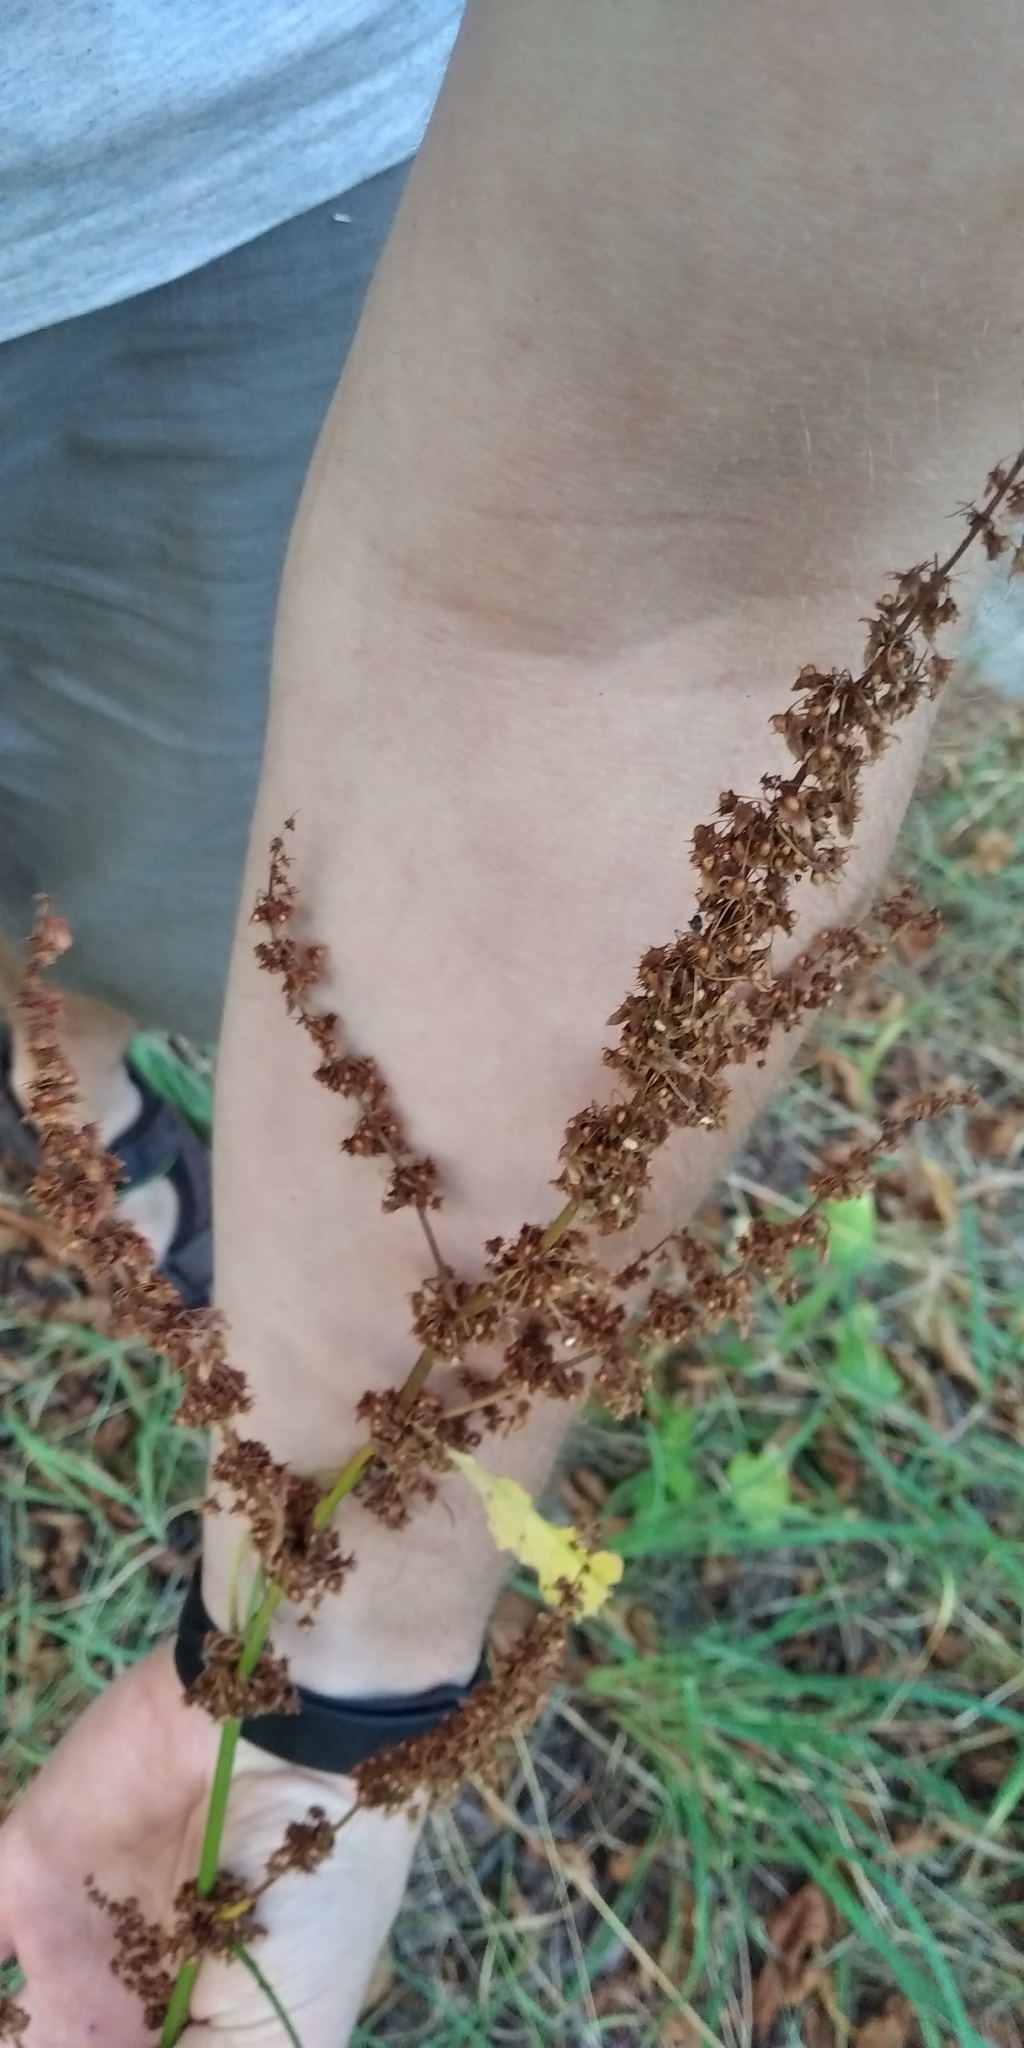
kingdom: Plantae
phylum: Tracheophyta
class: Magnoliopsida
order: Caryophyllales
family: Polygonaceae
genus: Rumex
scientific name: Rumex obtusifolius
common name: Bitter dock
